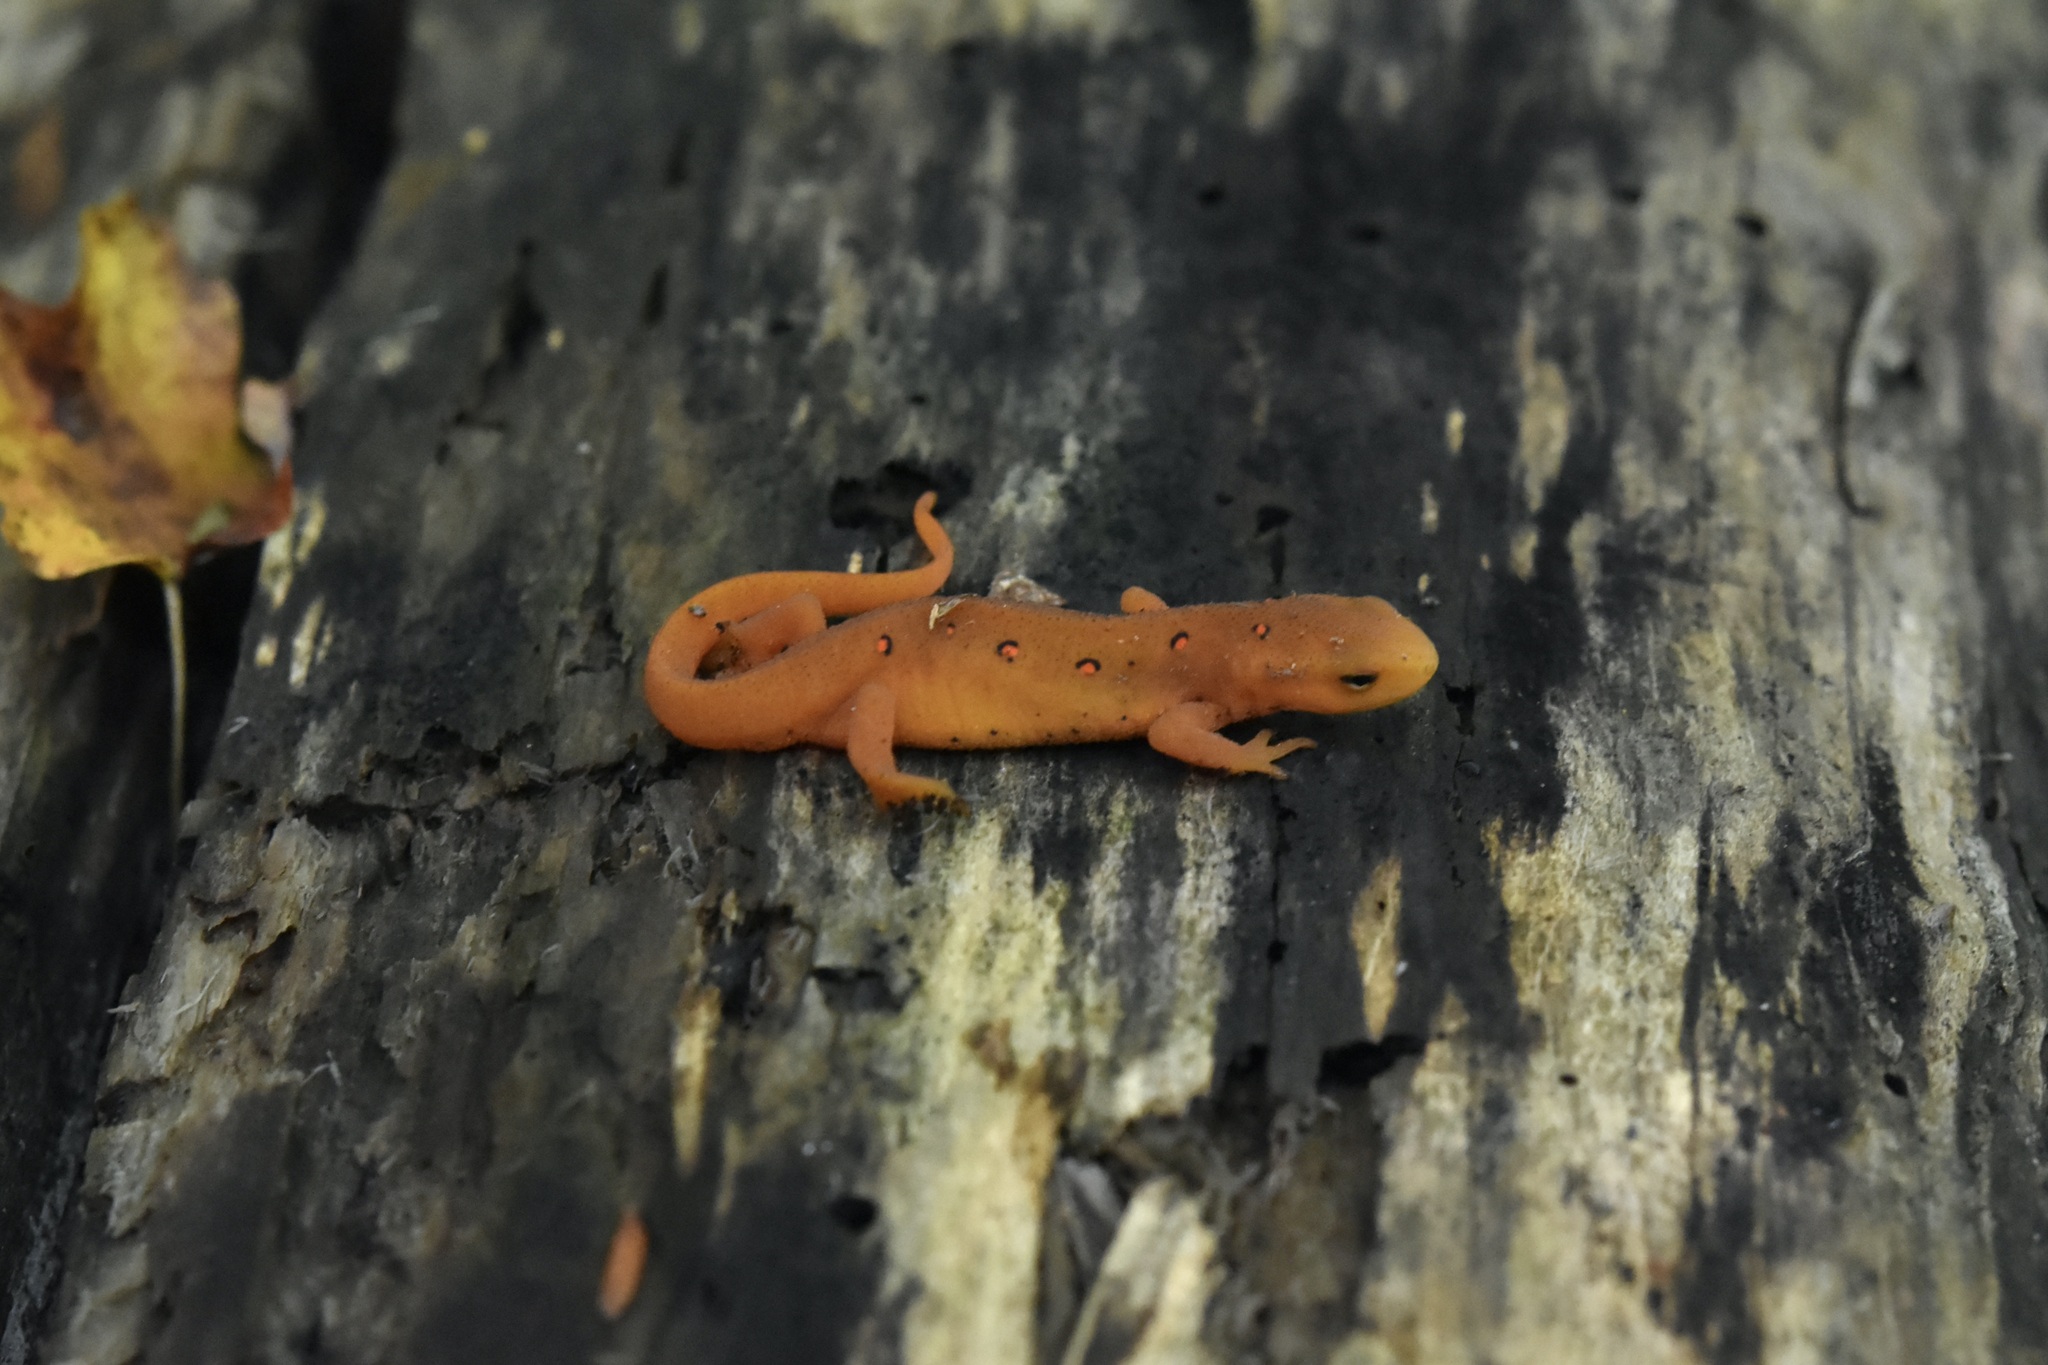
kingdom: Animalia
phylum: Chordata
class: Amphibia
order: Caudata
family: Salamandridae
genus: Notophthalmus
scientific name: Notophthalmus viridescens
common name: Eastern newt
